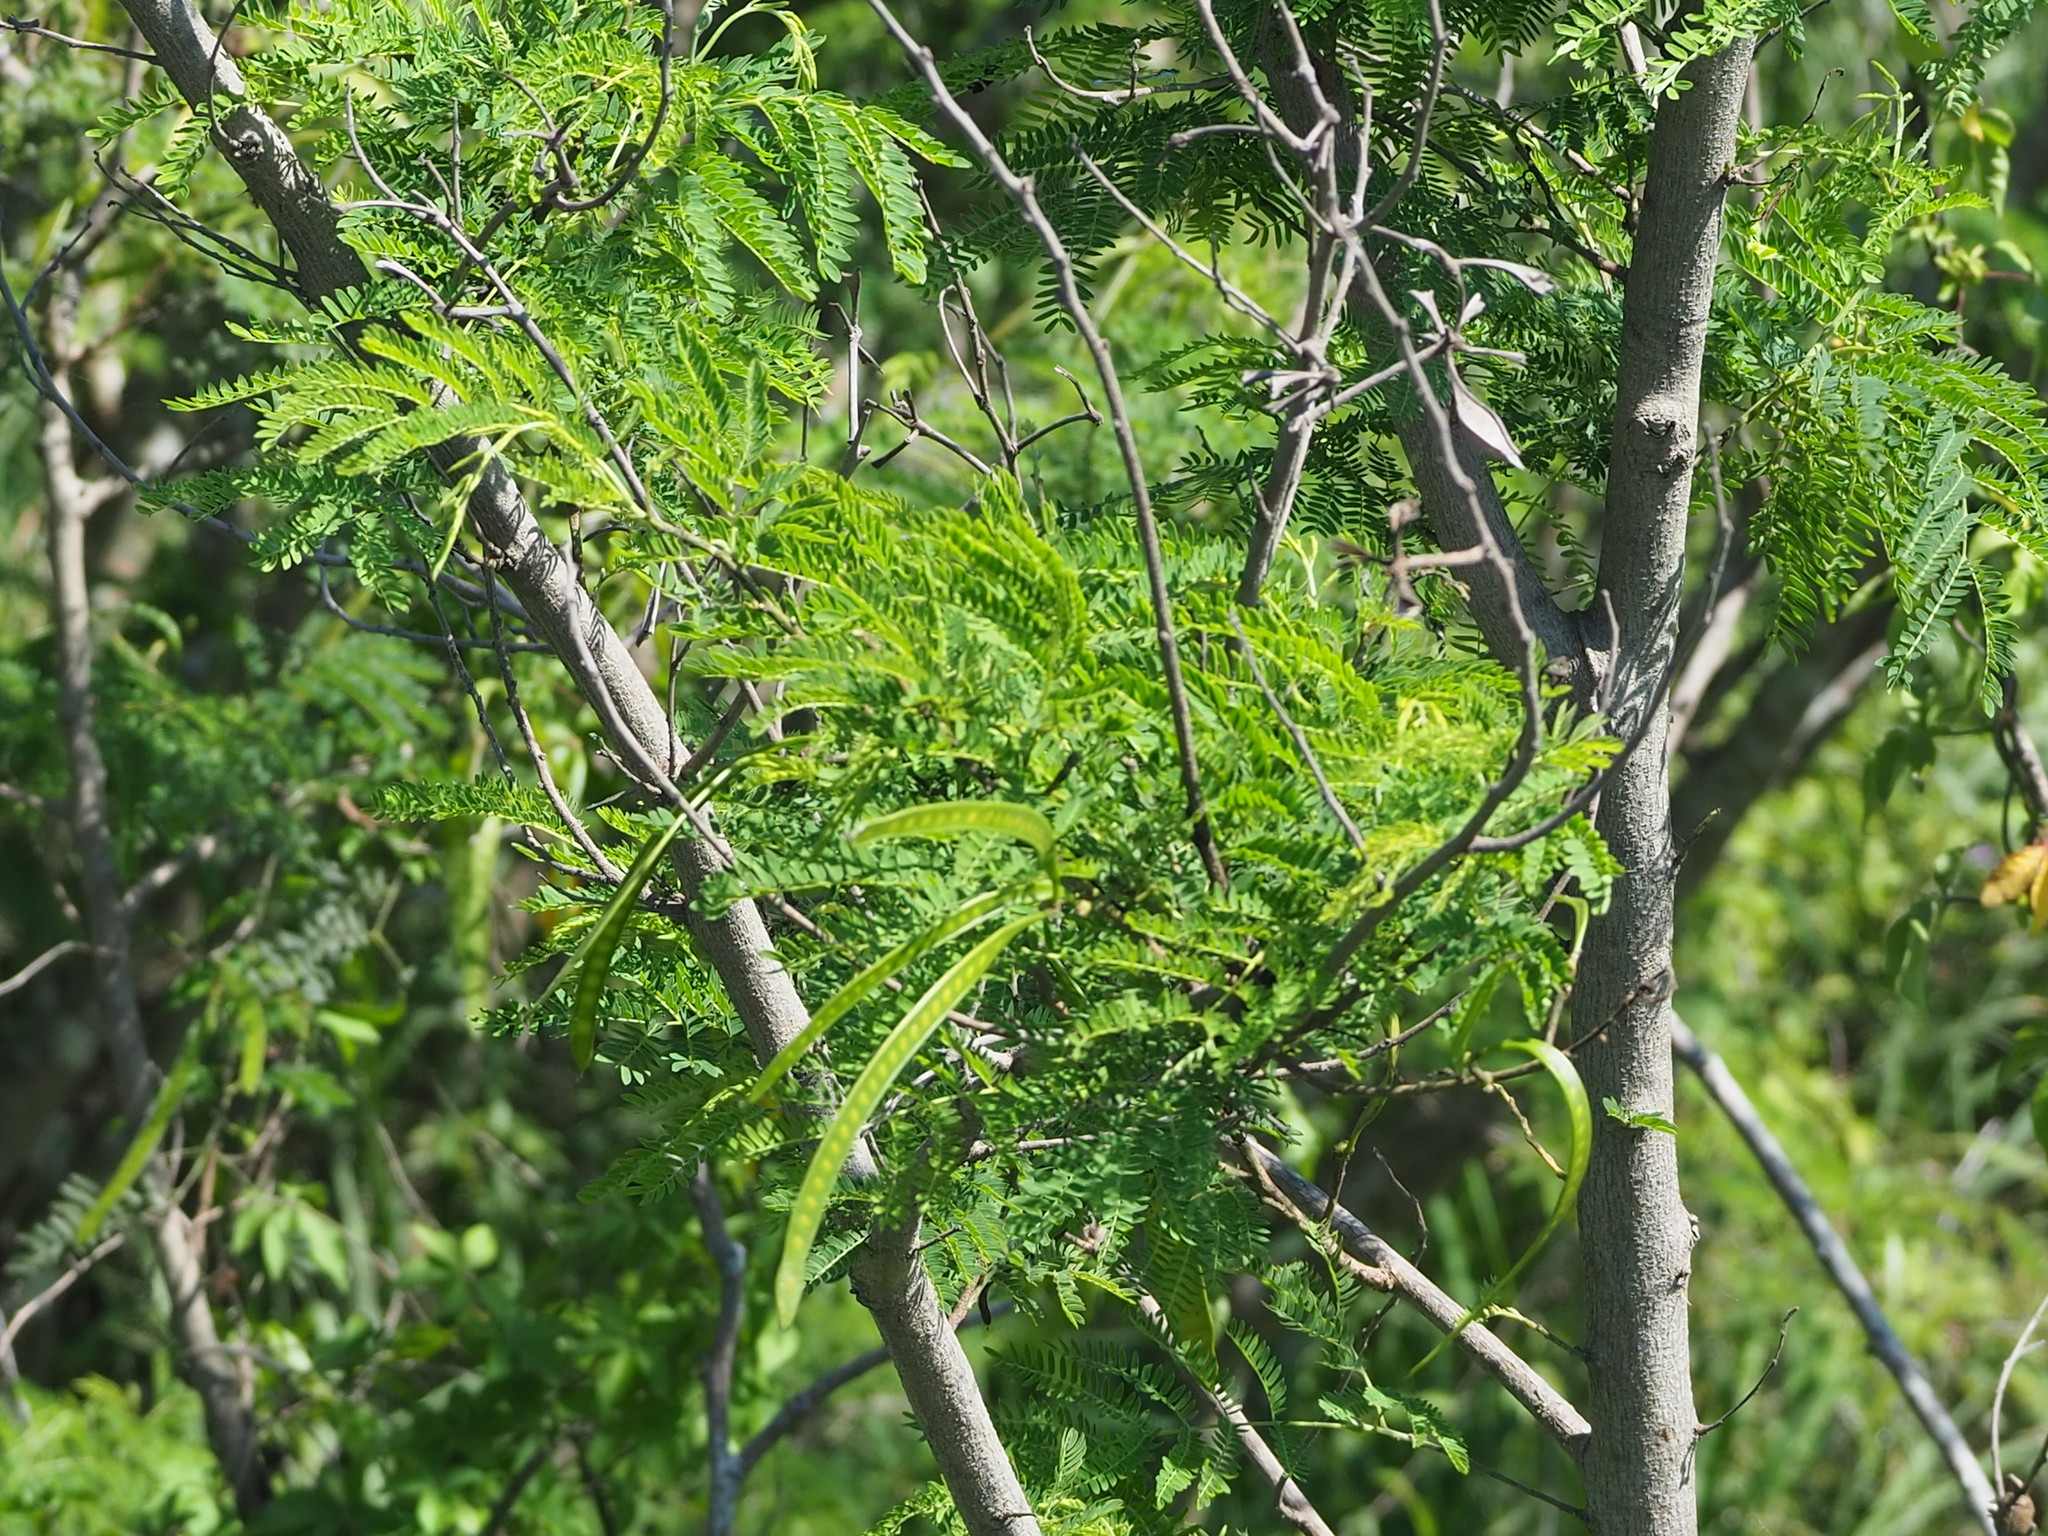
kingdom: Plantae
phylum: Tracheophyta
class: Magnoliopsida
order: Fabales
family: Fabaceae
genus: Leucaena
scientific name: Leucaena leucocephala
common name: White leadtree
